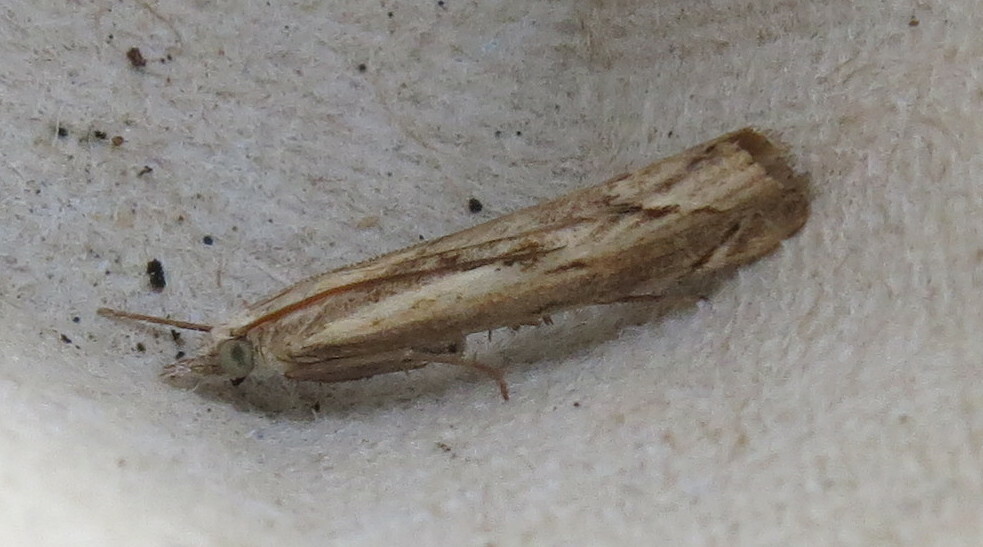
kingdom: Animalia
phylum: Arthropoda
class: Insecta
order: Lepidoptera
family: Crambidae
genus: Agriphila
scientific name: Agriphila geniculea
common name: Elbow-stripe grass-veneer
